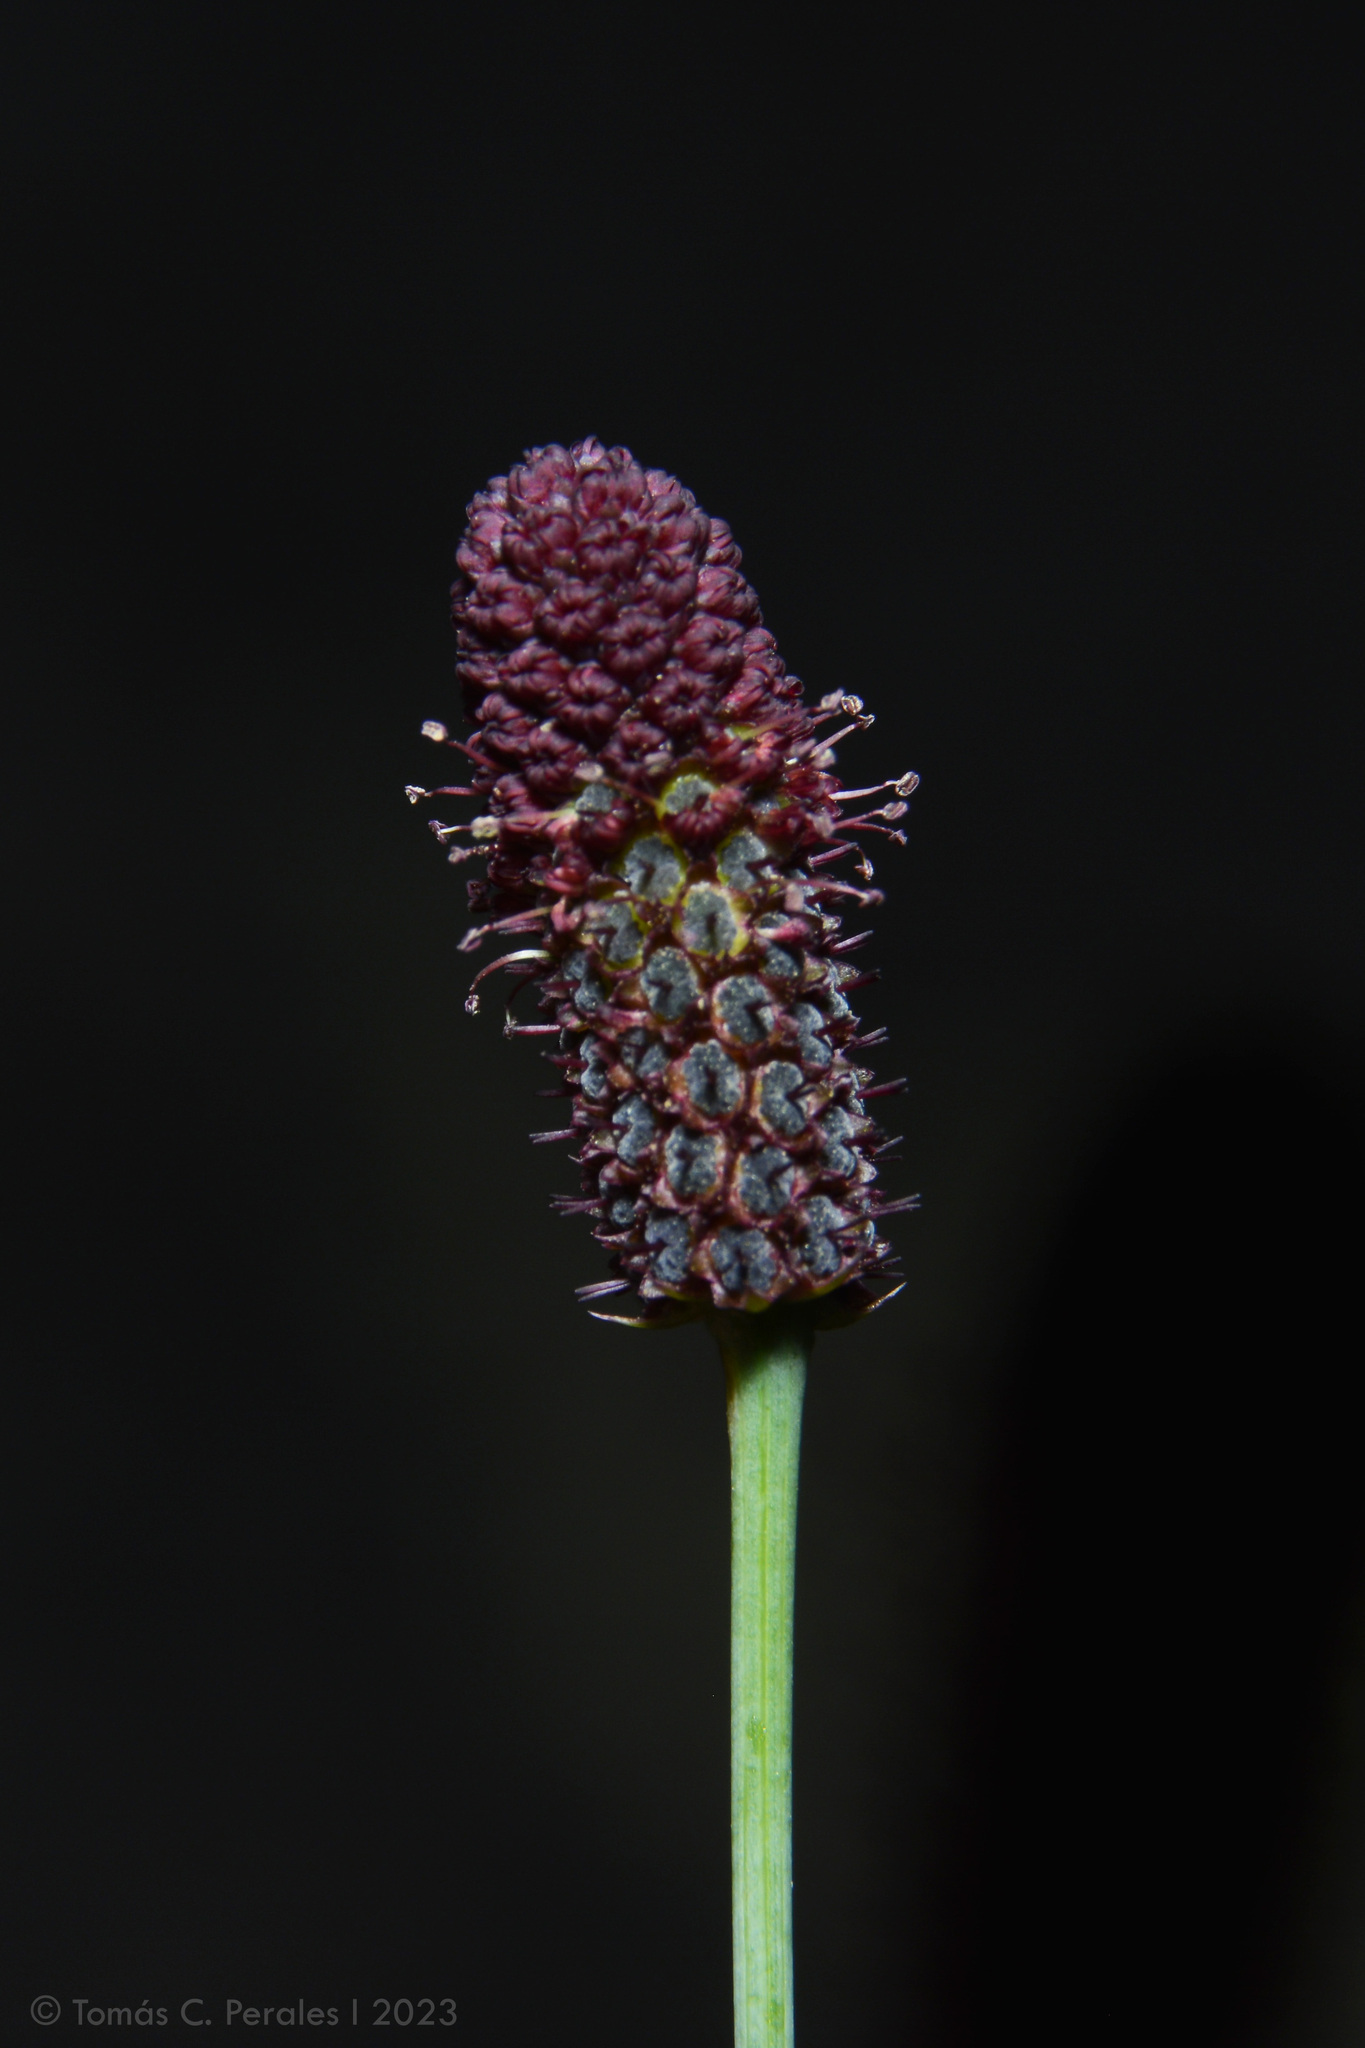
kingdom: Plantae
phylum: Tracheophyta
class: Magnoliopsida
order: Apiales
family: Apiaceae
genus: Eryngium
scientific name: Eryngium ebracteatum
